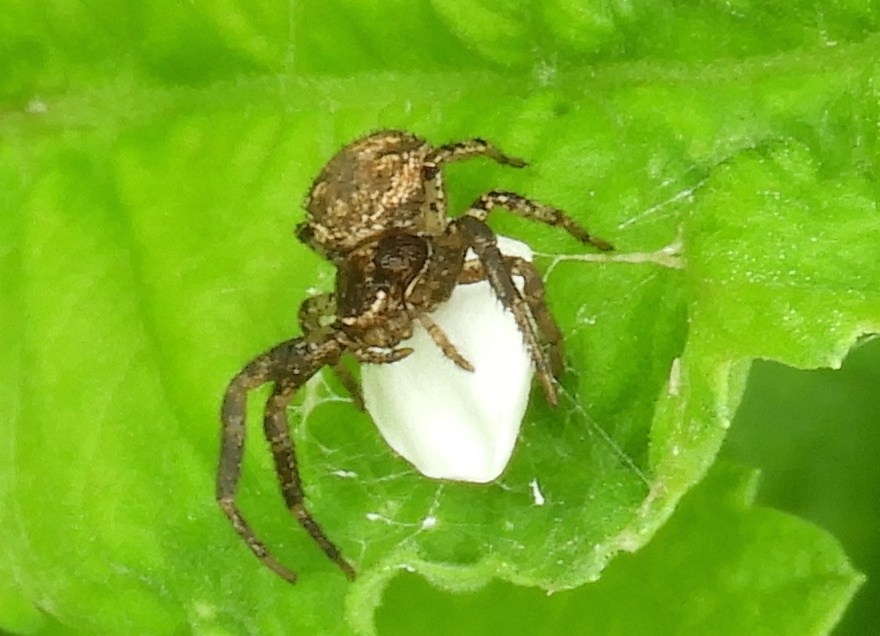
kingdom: Animalia
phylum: Arthropoda
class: Arachnida
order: Araneae
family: Thomisidae
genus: Xysticus
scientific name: Xysticus
